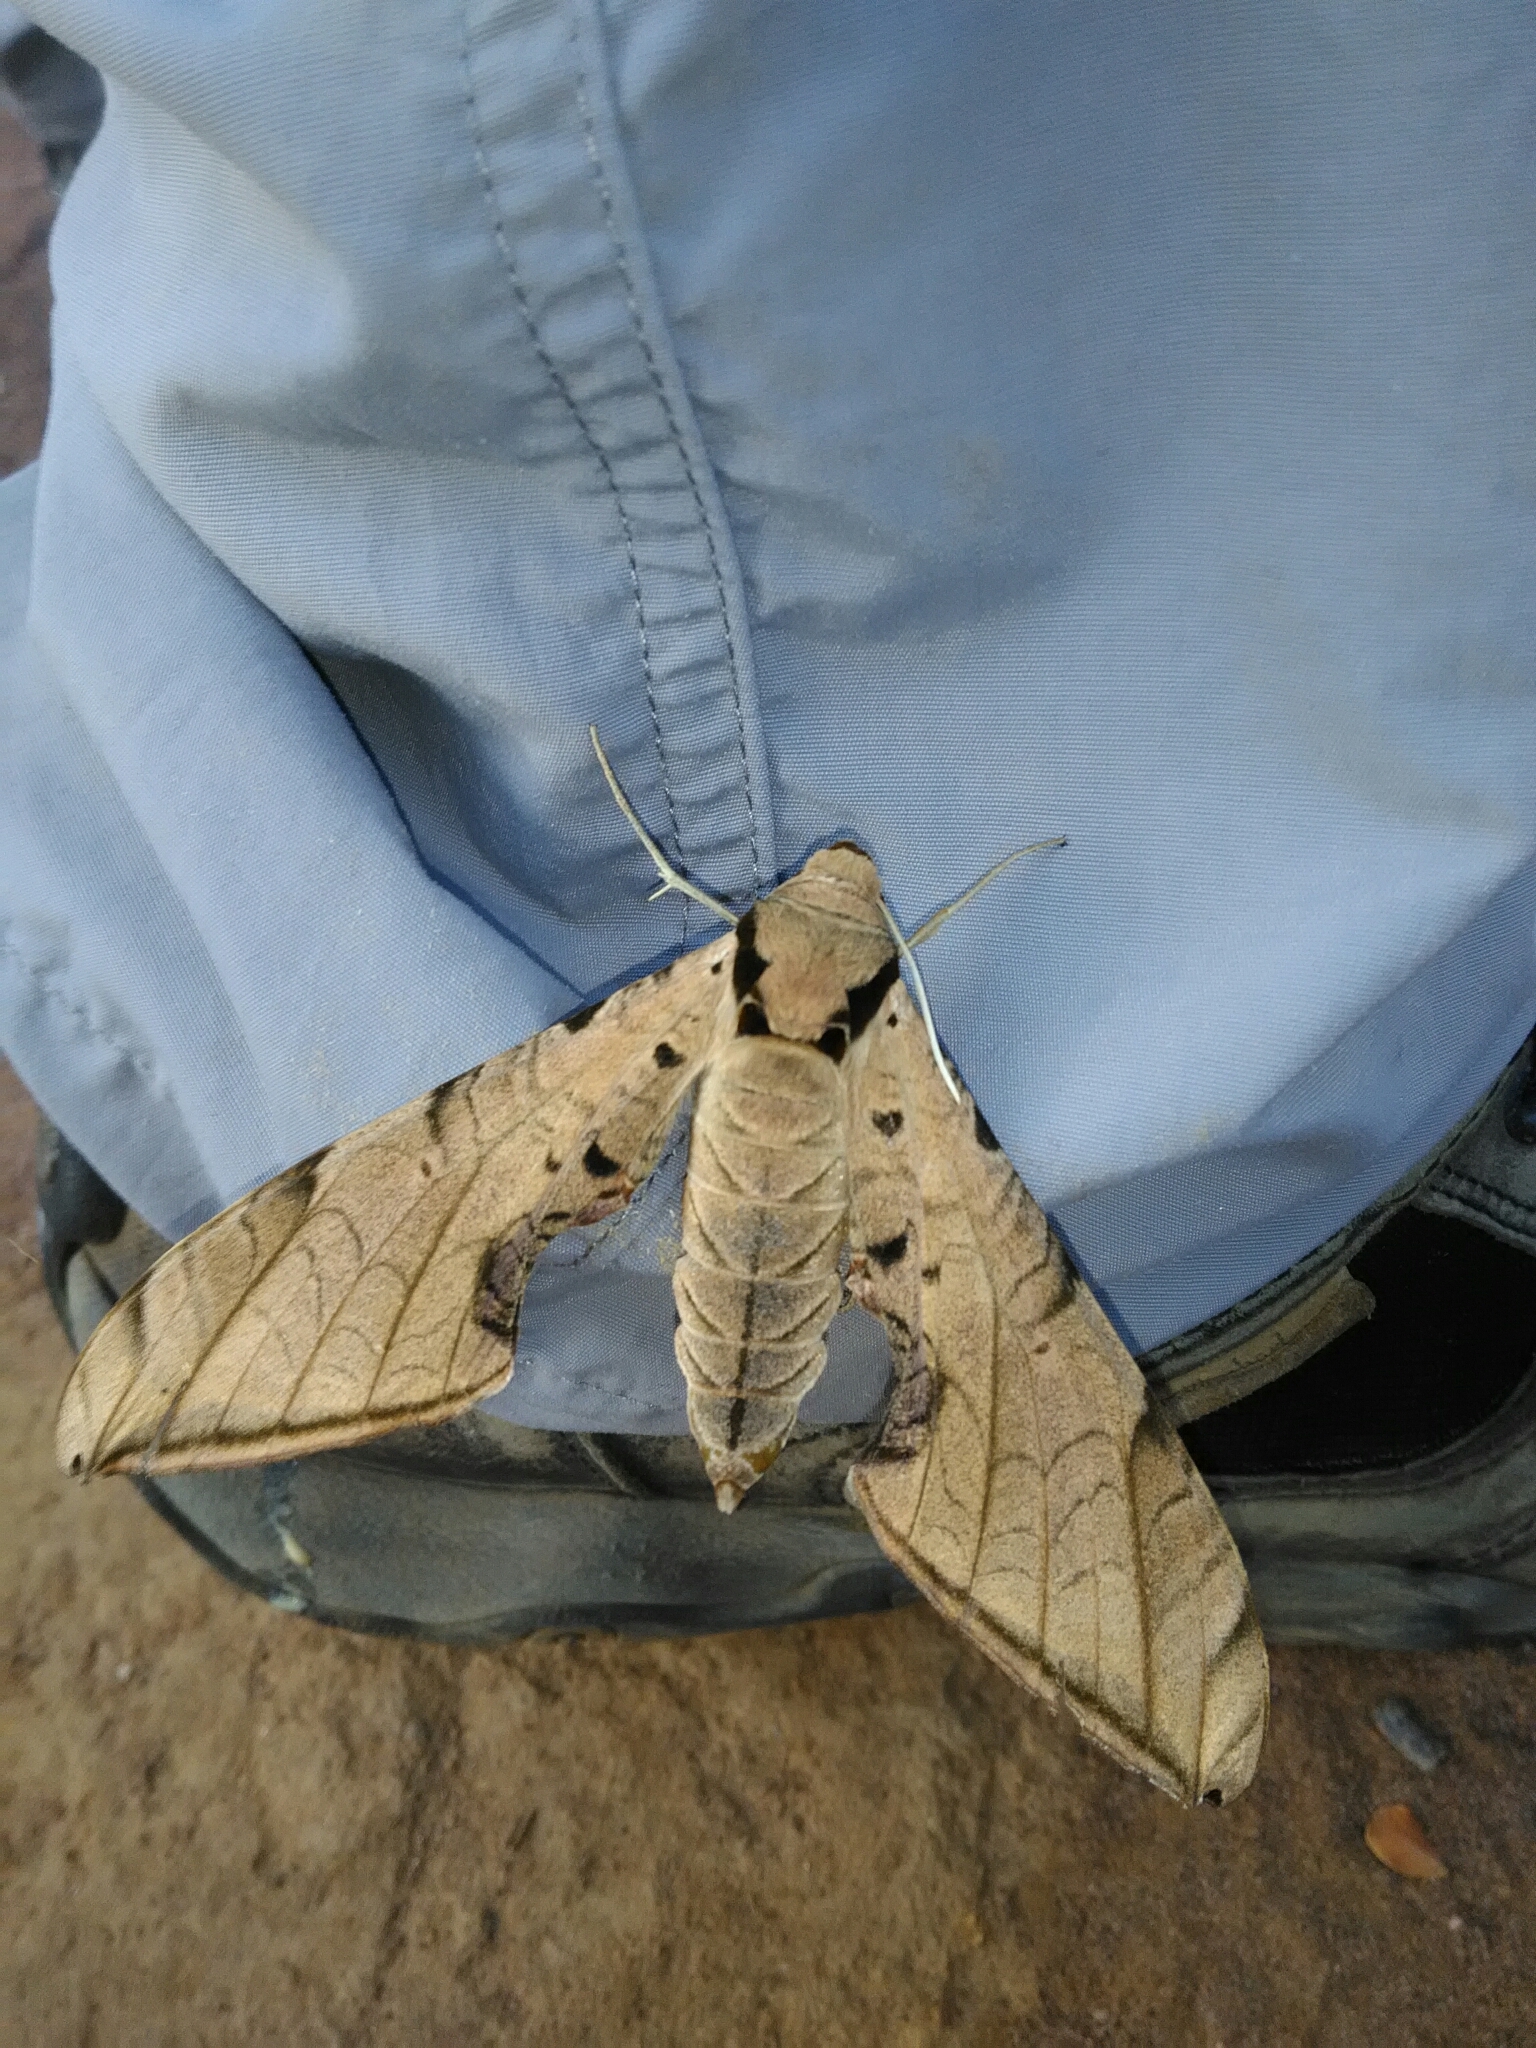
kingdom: Animalia
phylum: Arthropoda
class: Insecta
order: Lepidoptera
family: Sphingidae
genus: Protambulyx
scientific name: Protambulyx strigilis
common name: Streaked sphinx
